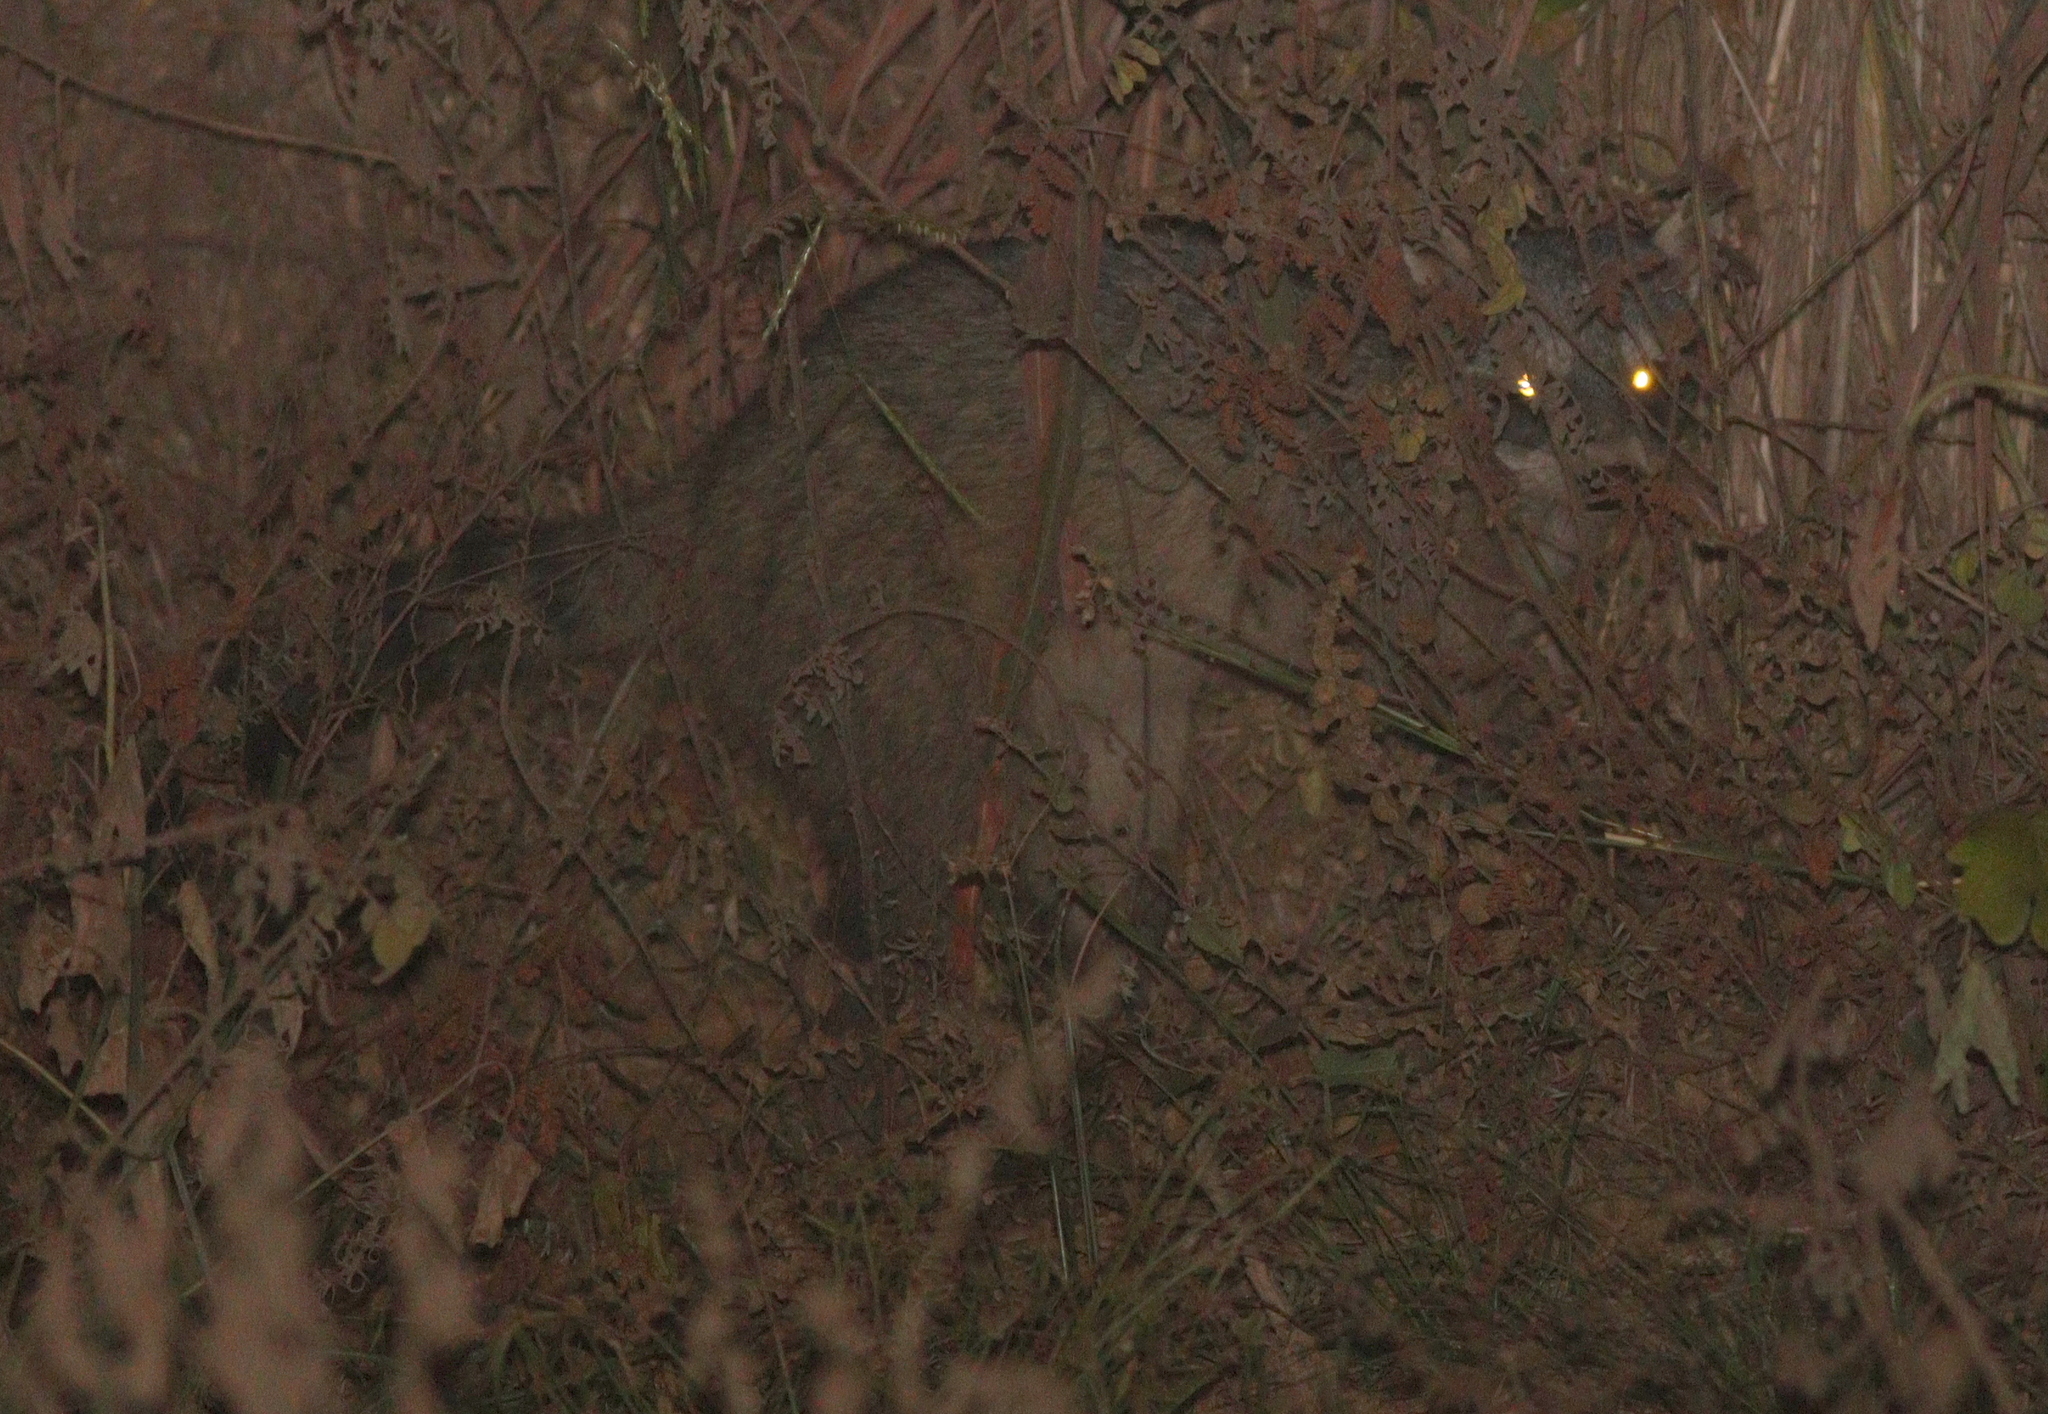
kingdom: Animalia
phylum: Chordata
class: Mammalia
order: Carnivora
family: Procyonidae
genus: Procyon
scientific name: Procyon cancrivorus
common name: Crab-eating raccoon
